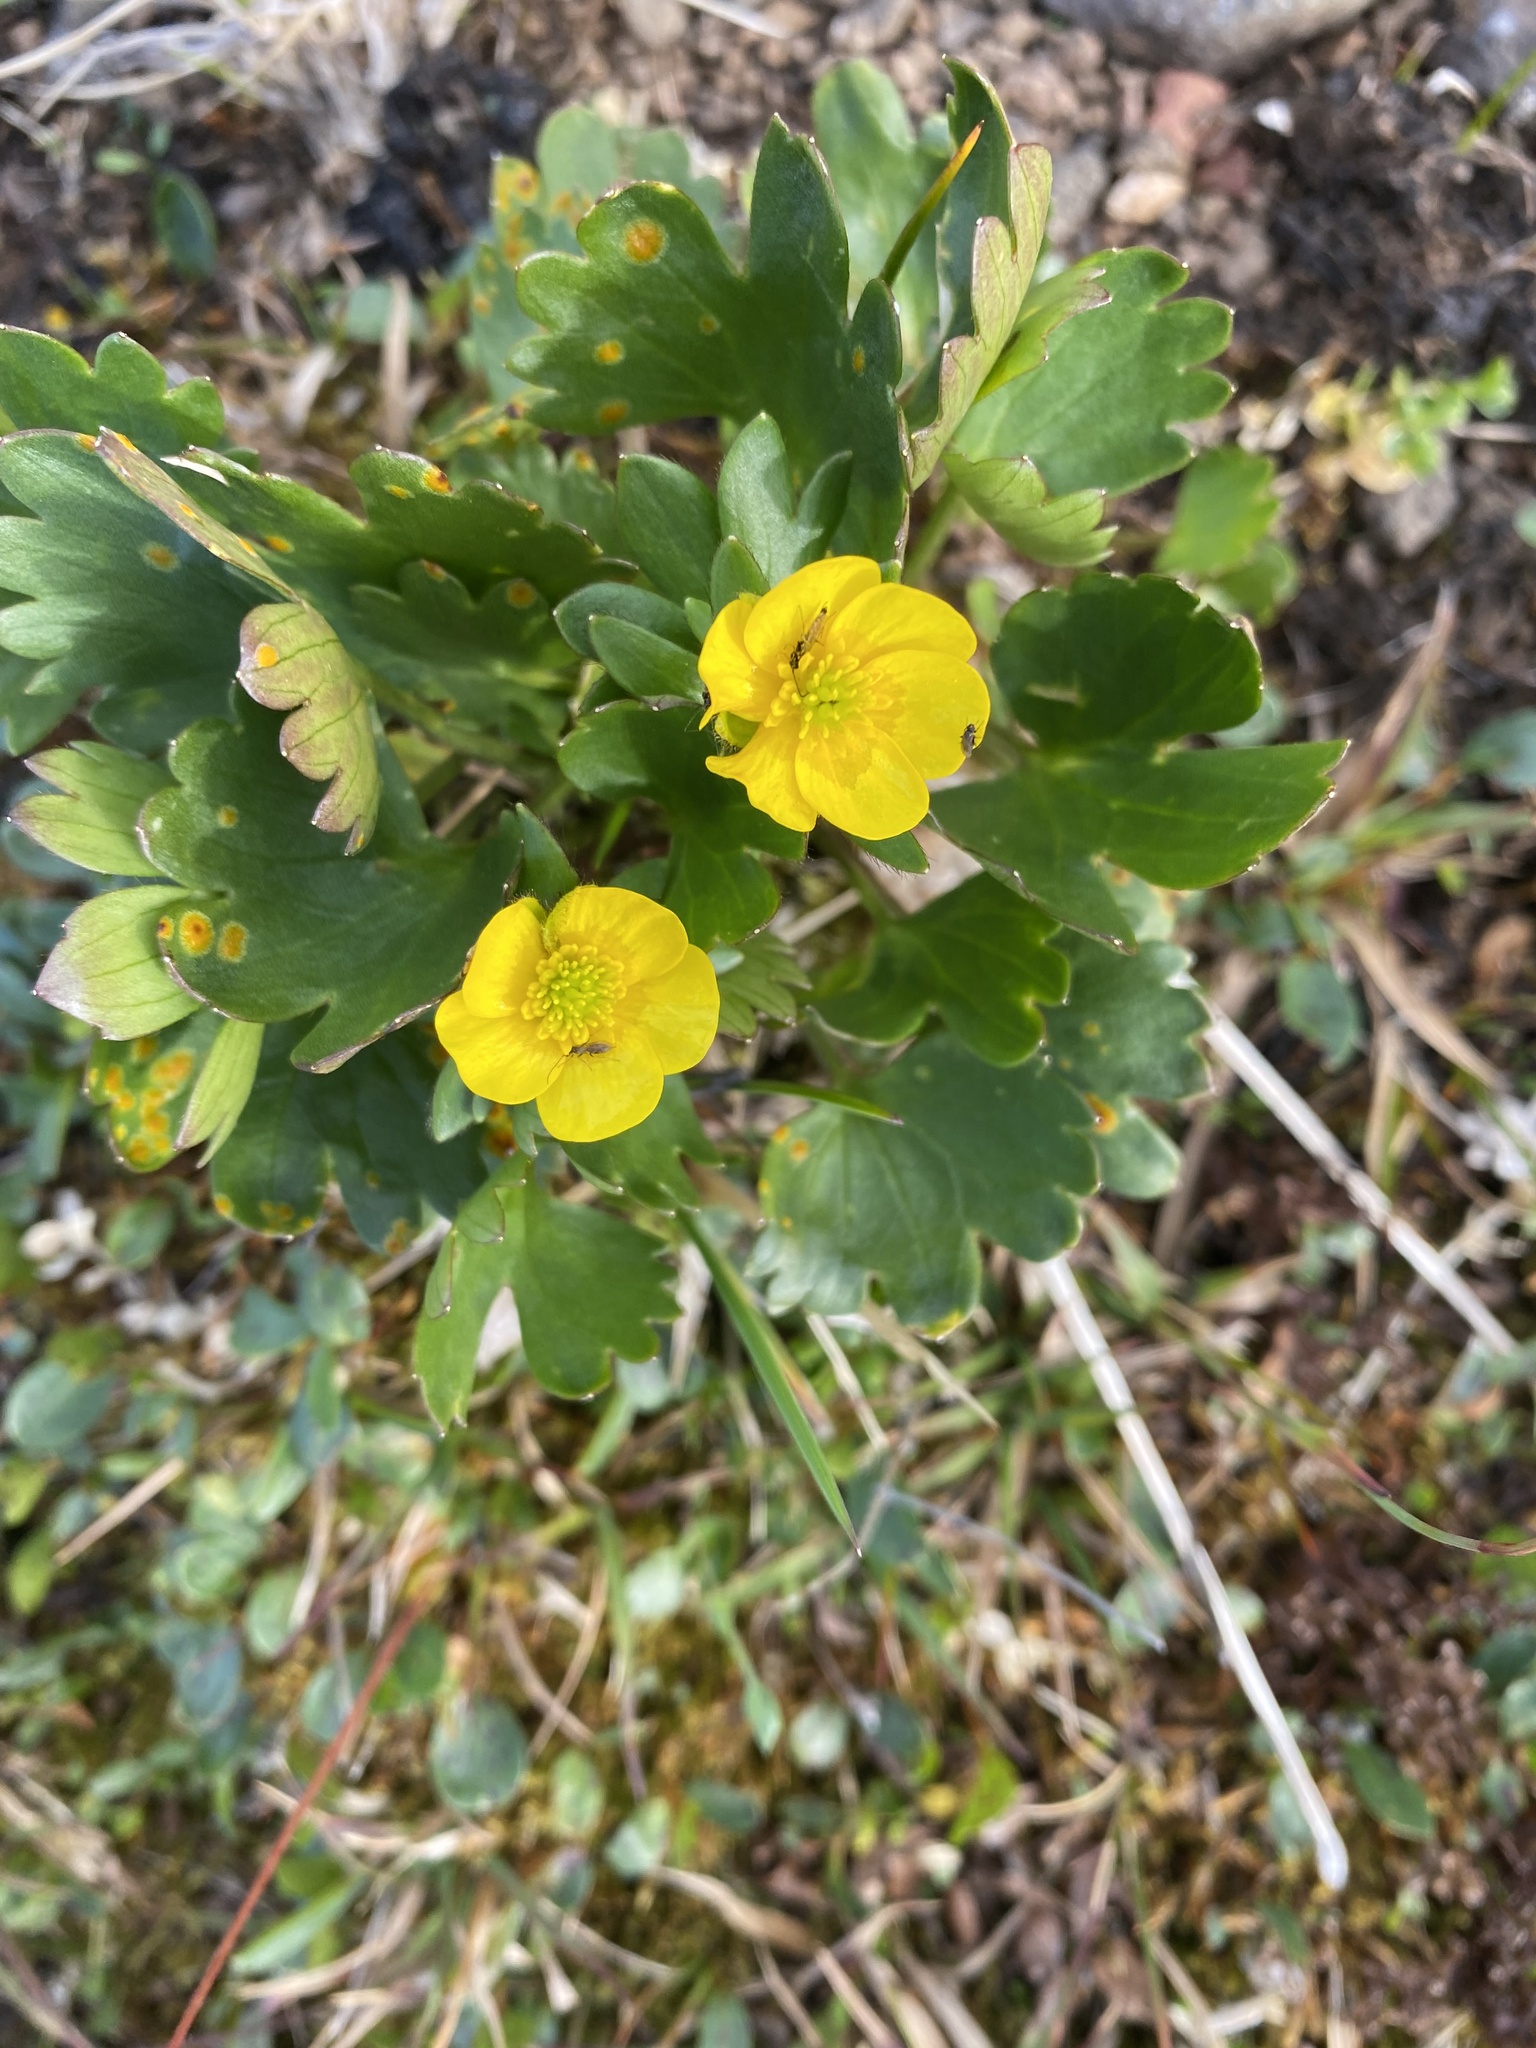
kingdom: Plantae
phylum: Tracheophyta
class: Magnoliopsida
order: Ranunculales
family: Ranunculaceae
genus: Ranunculus
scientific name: Ranunculus sulphureus
